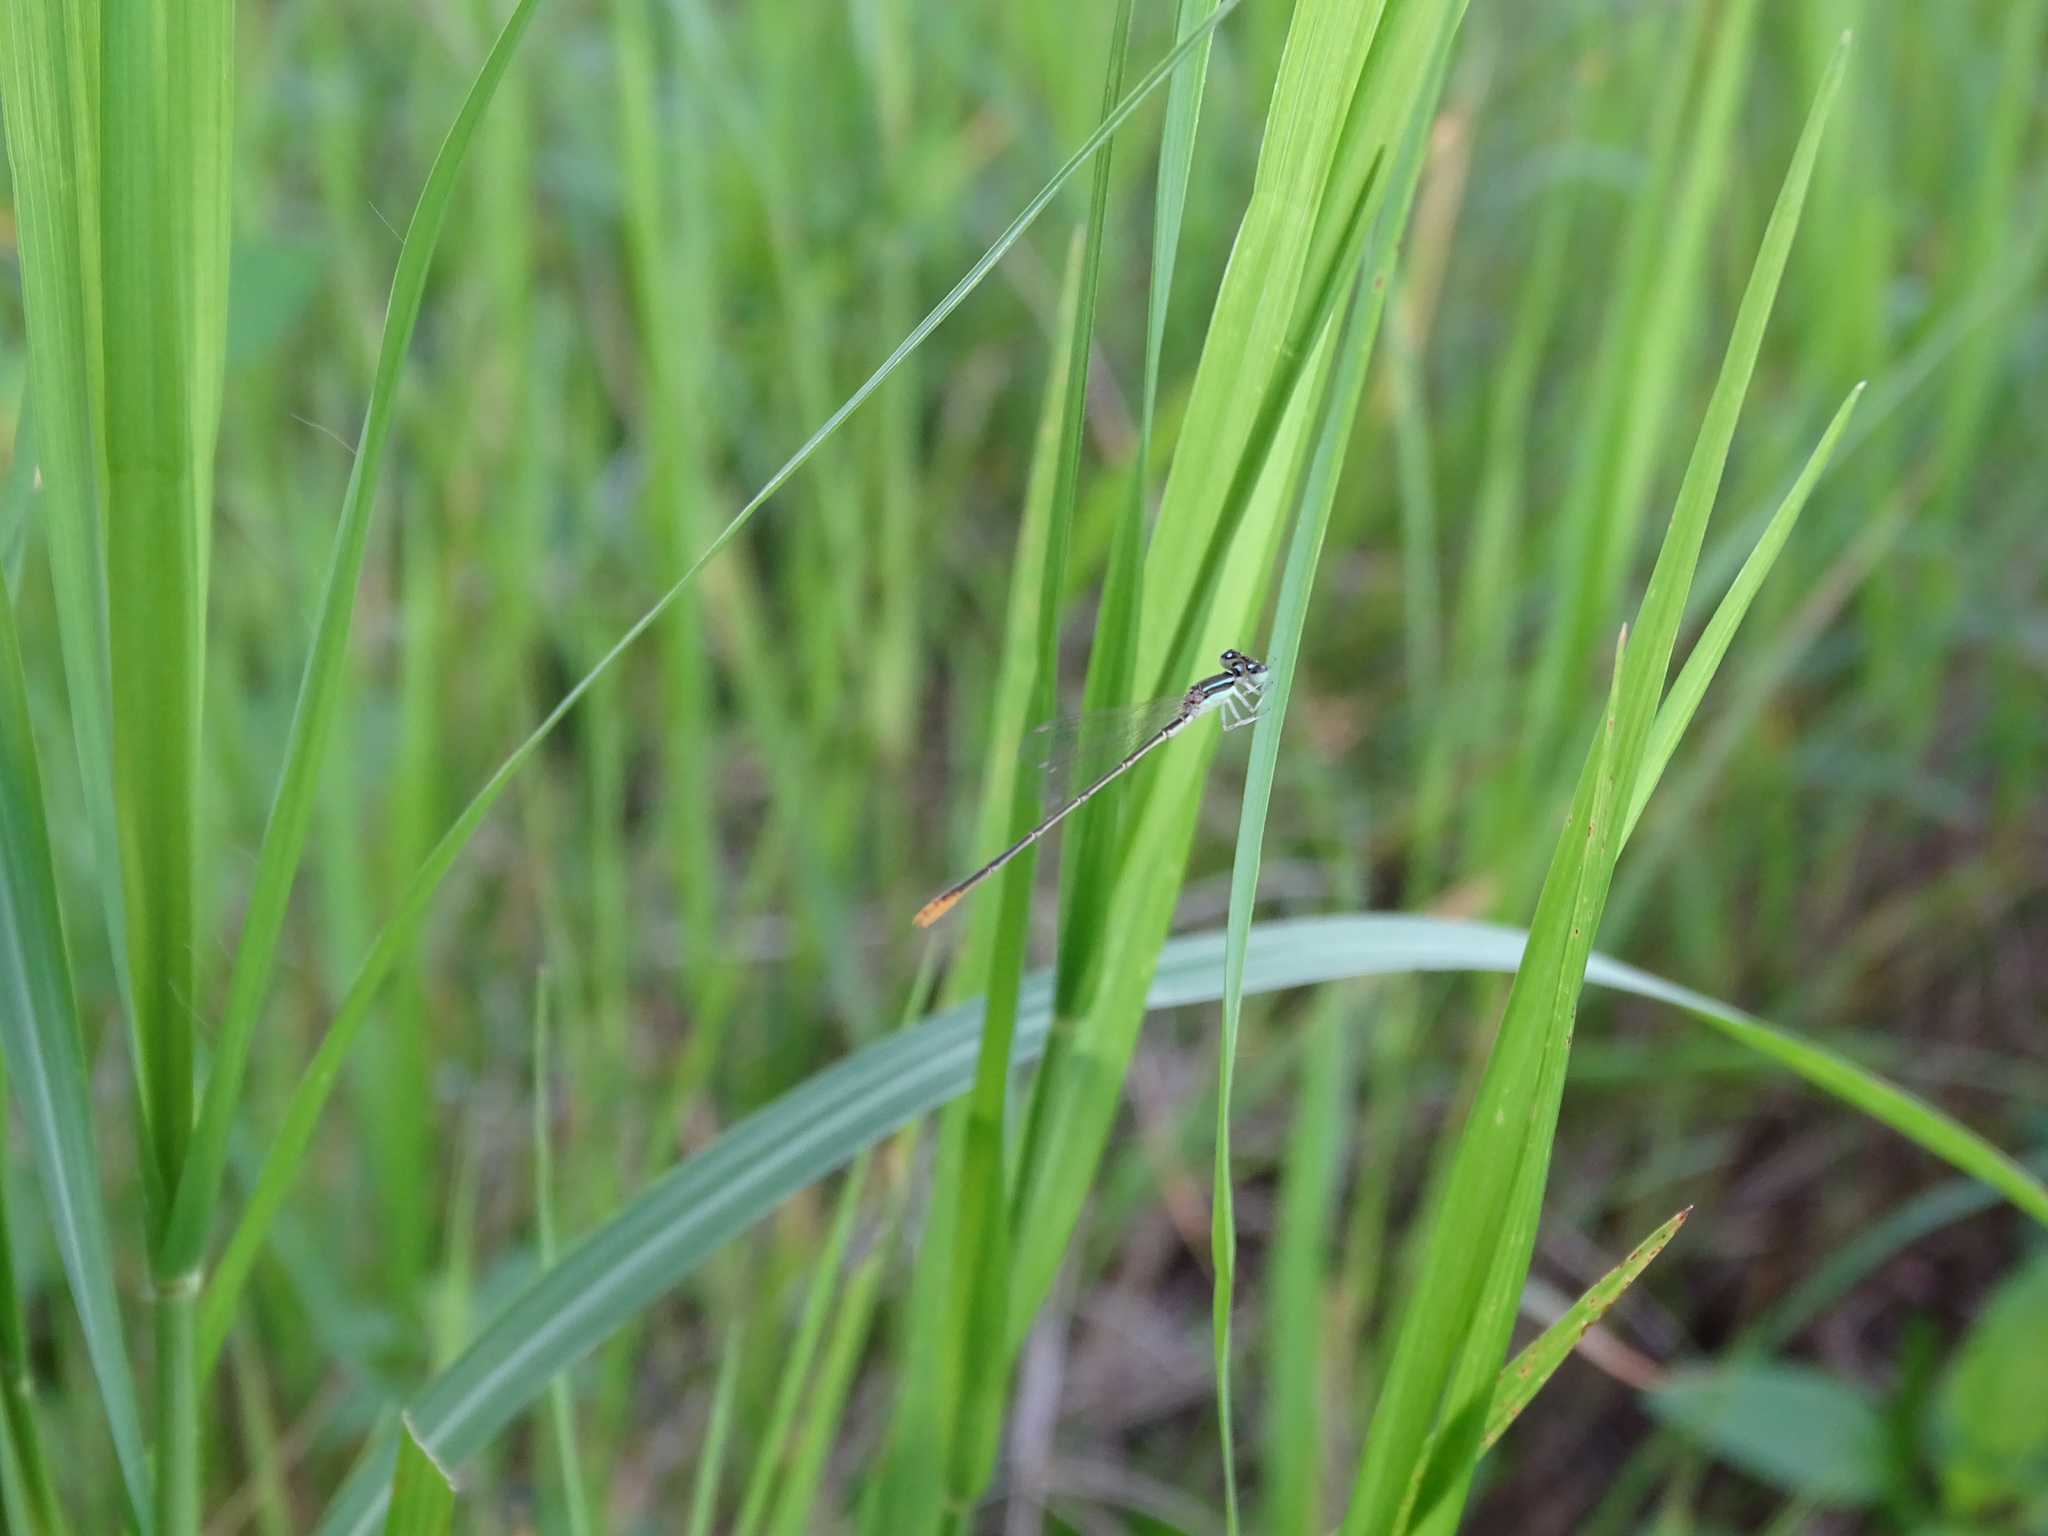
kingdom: Animalia
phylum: Arthropoda
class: Insecta
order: Odonata
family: Coenagrionidae
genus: Agriocnemis
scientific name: Agriocnemis pygmaea
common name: Pygmy wisp
